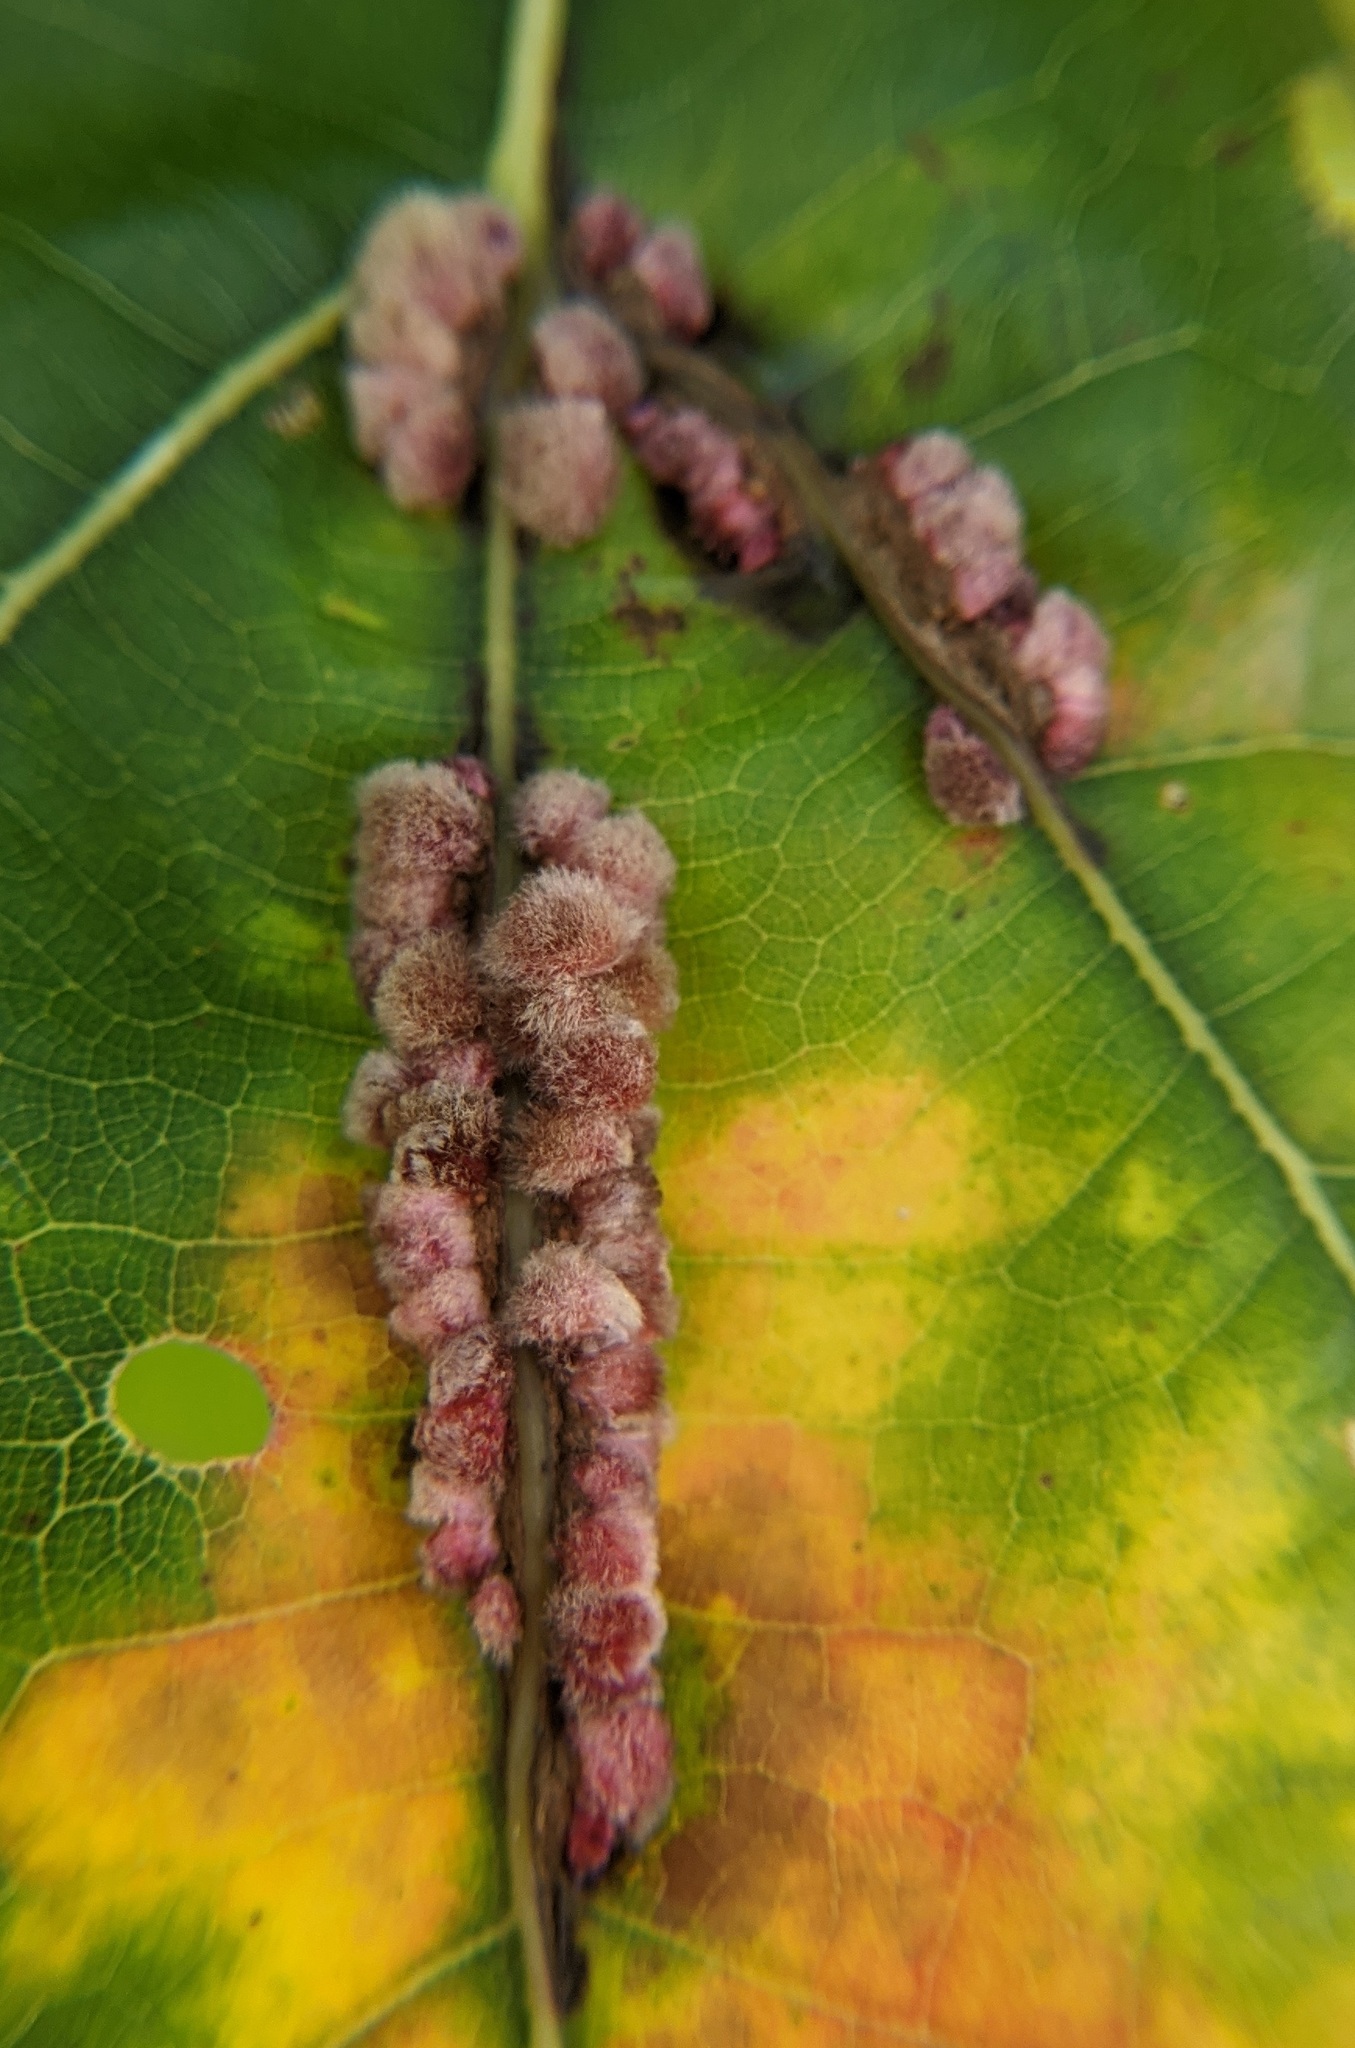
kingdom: Animalia
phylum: Arthropoda
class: Insecta
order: Hymenoptera
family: Cynipidae
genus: Callirhytis
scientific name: Callirhytis
